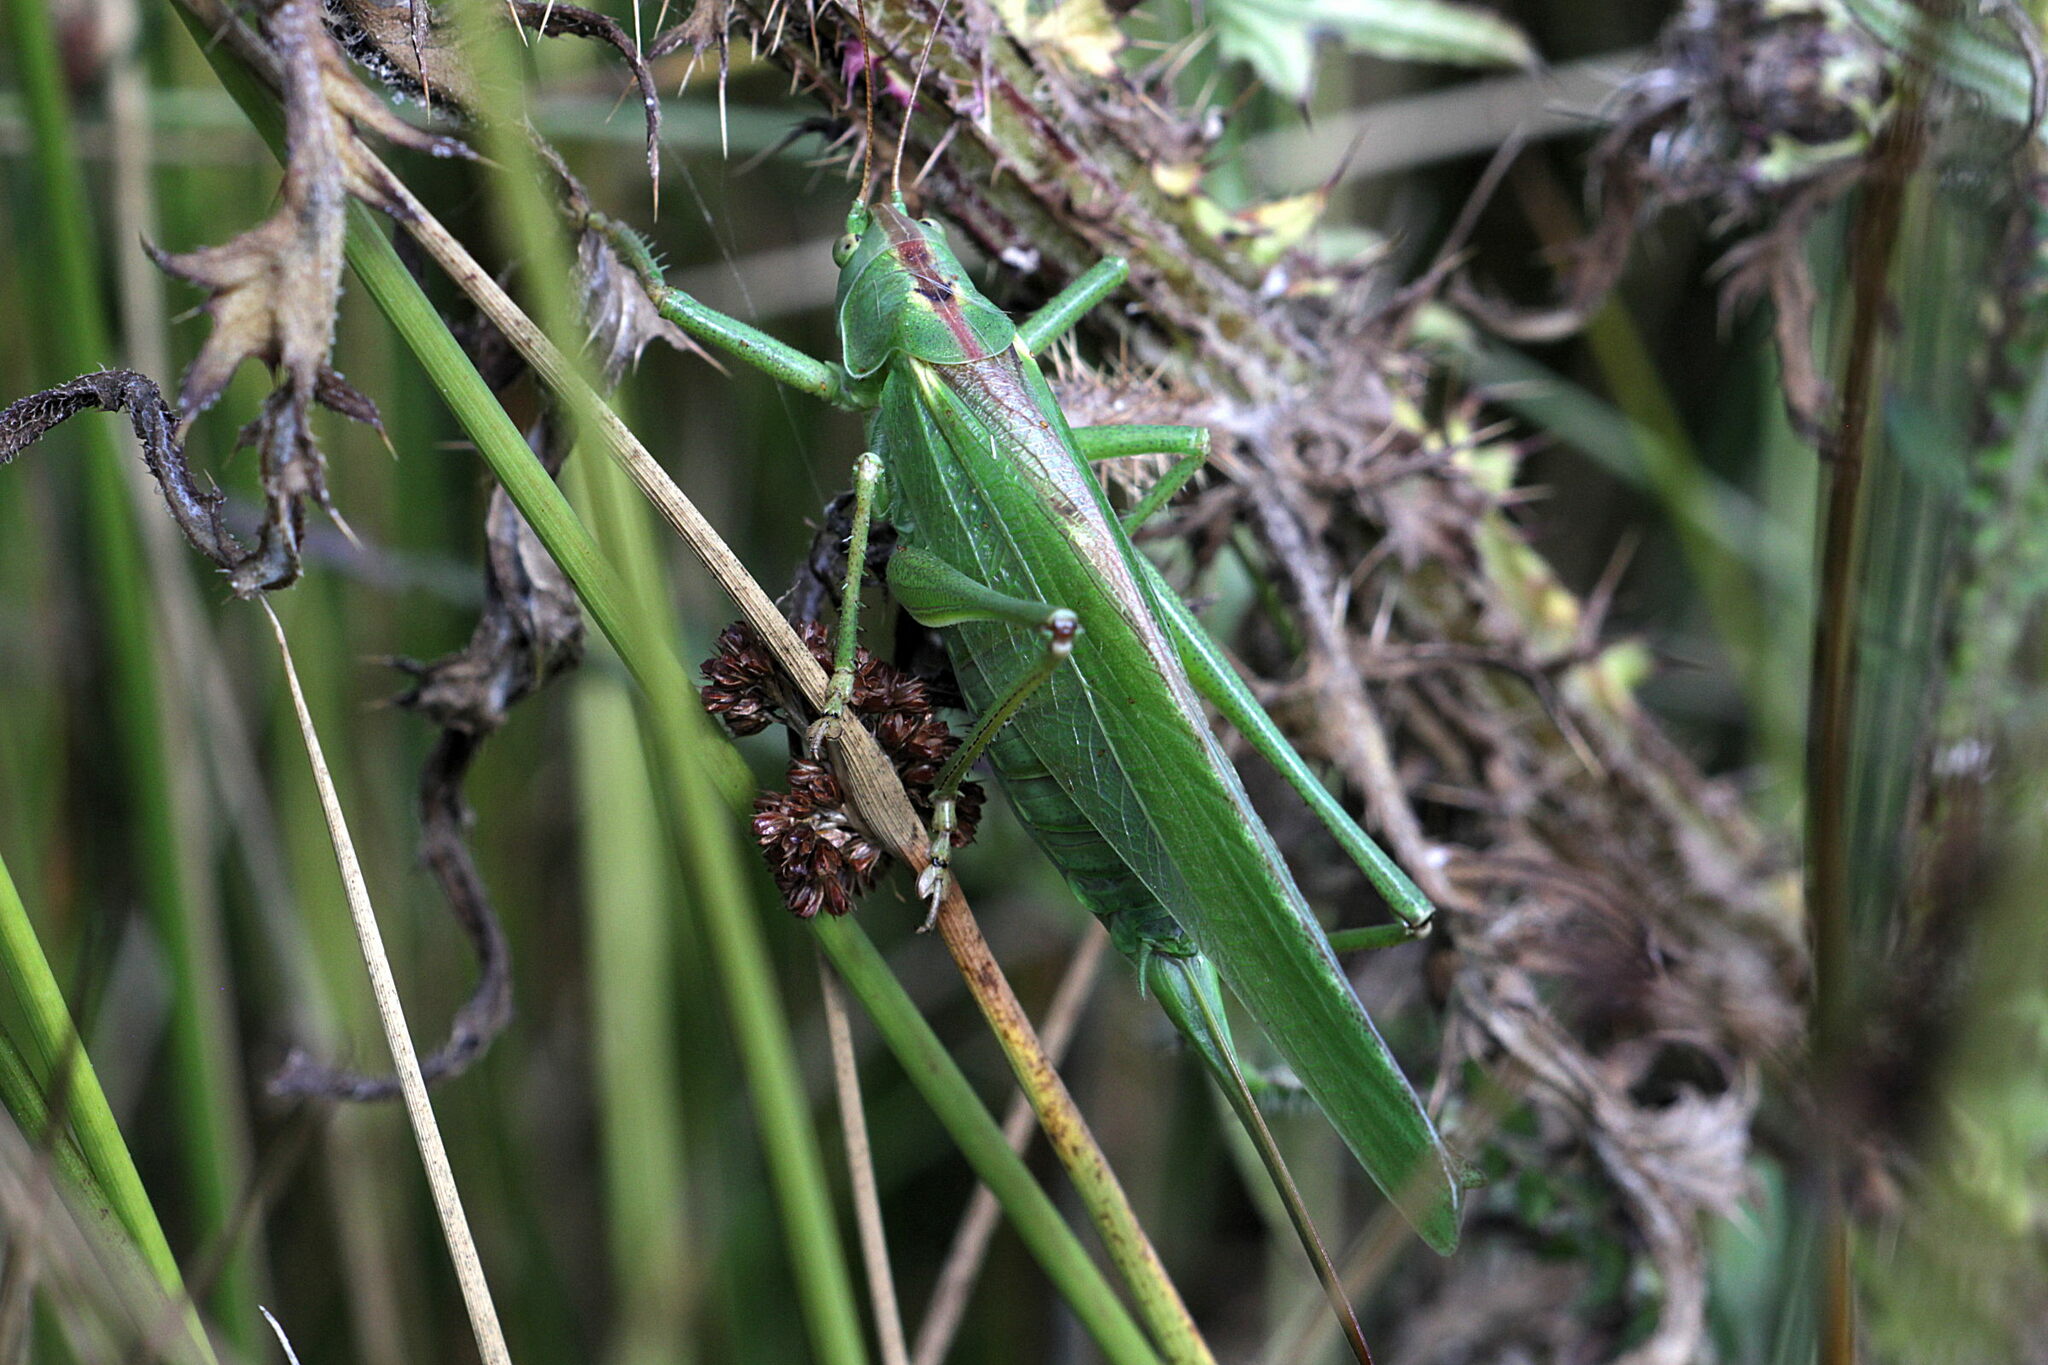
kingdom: Animalia
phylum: Arthropoda
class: Insecta
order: Orthoptera
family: Tettigoniidae
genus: Tettigonia
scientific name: Tettigonia viridissima
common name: Great green bush-cricket
